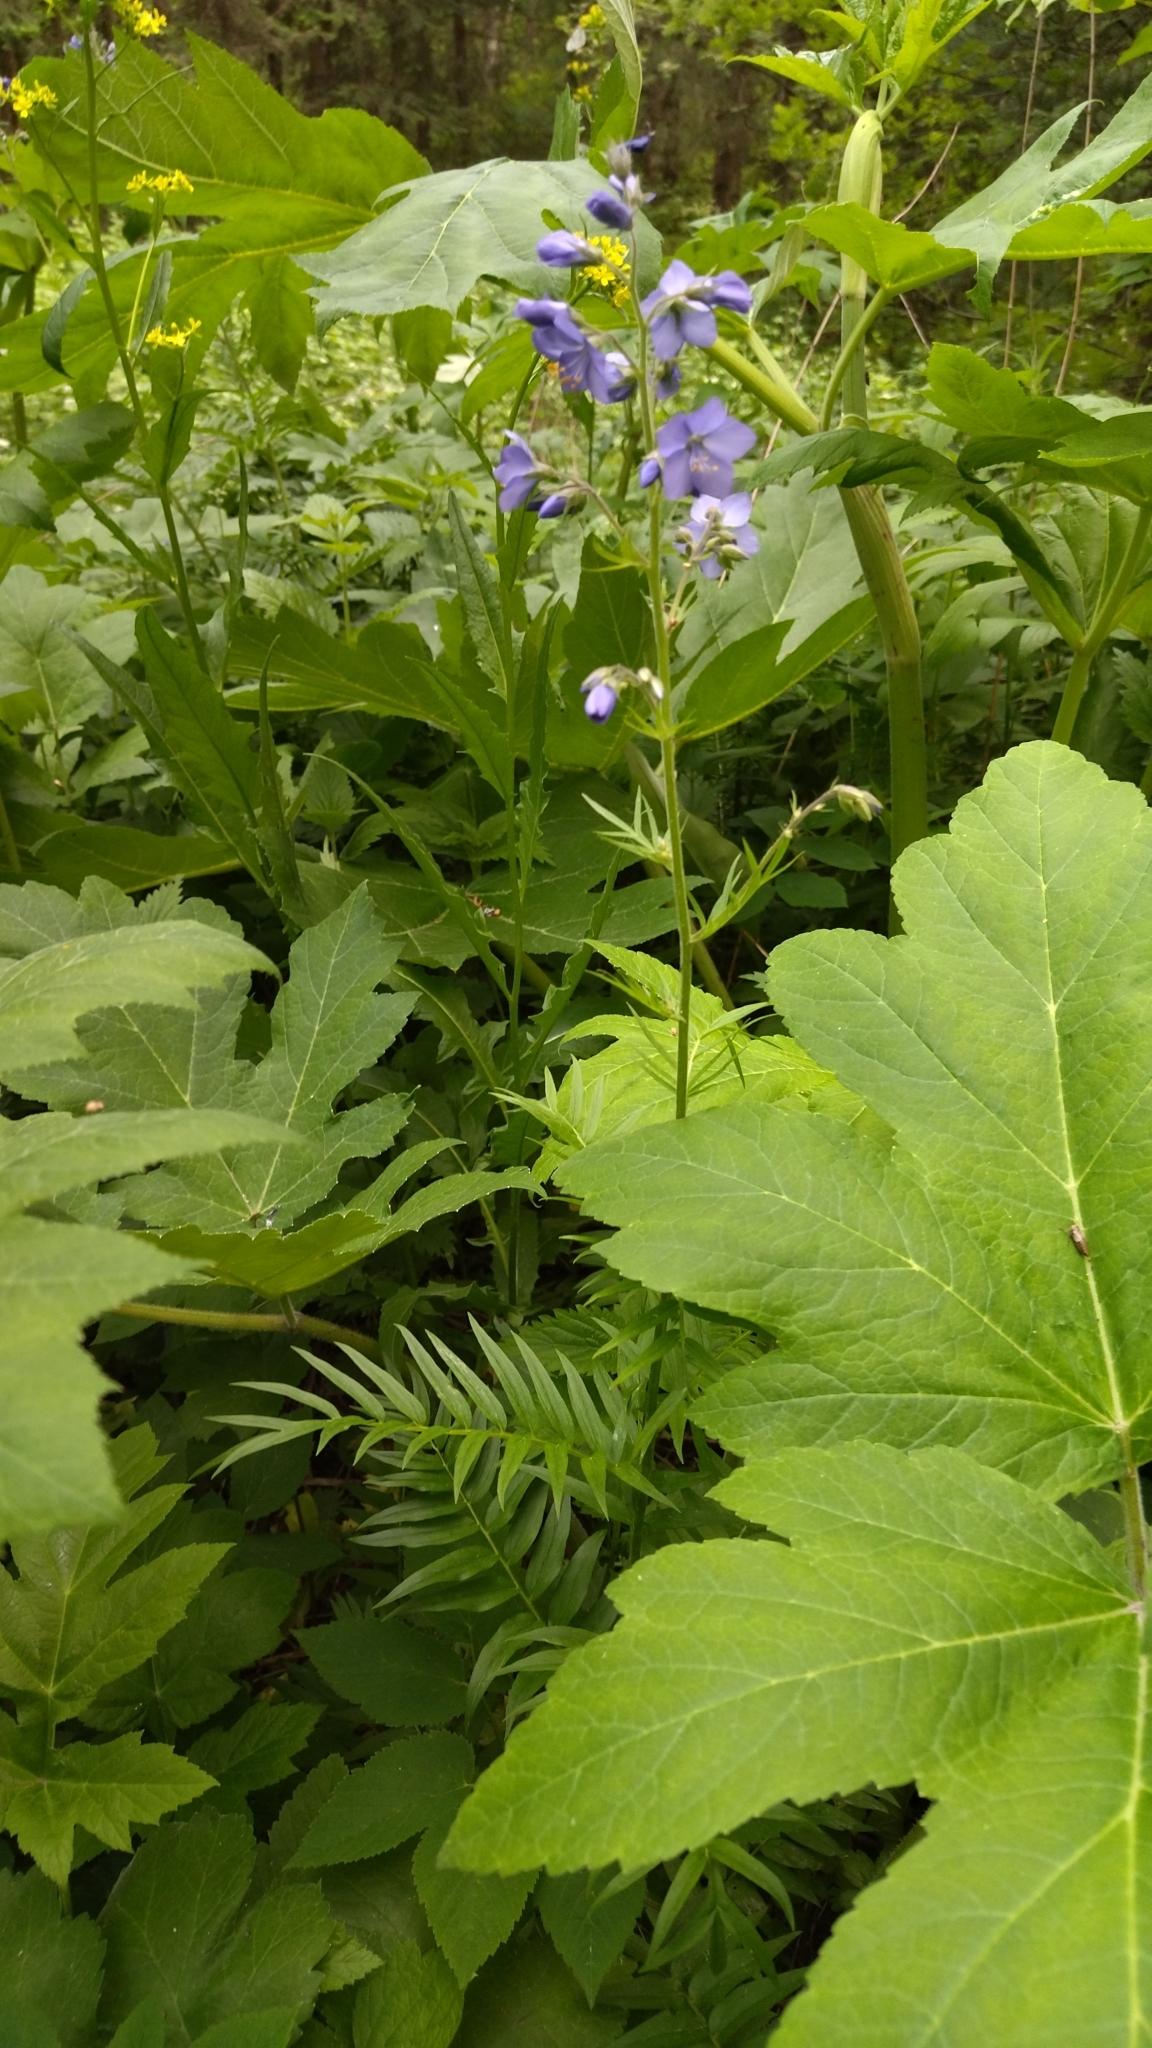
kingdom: Plantae
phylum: Tracheophyta
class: Magnoliopsida
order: Ericales
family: Polemoniaceae
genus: Polemonium
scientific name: Polemonium caeruleum
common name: Jacob's-ladder
